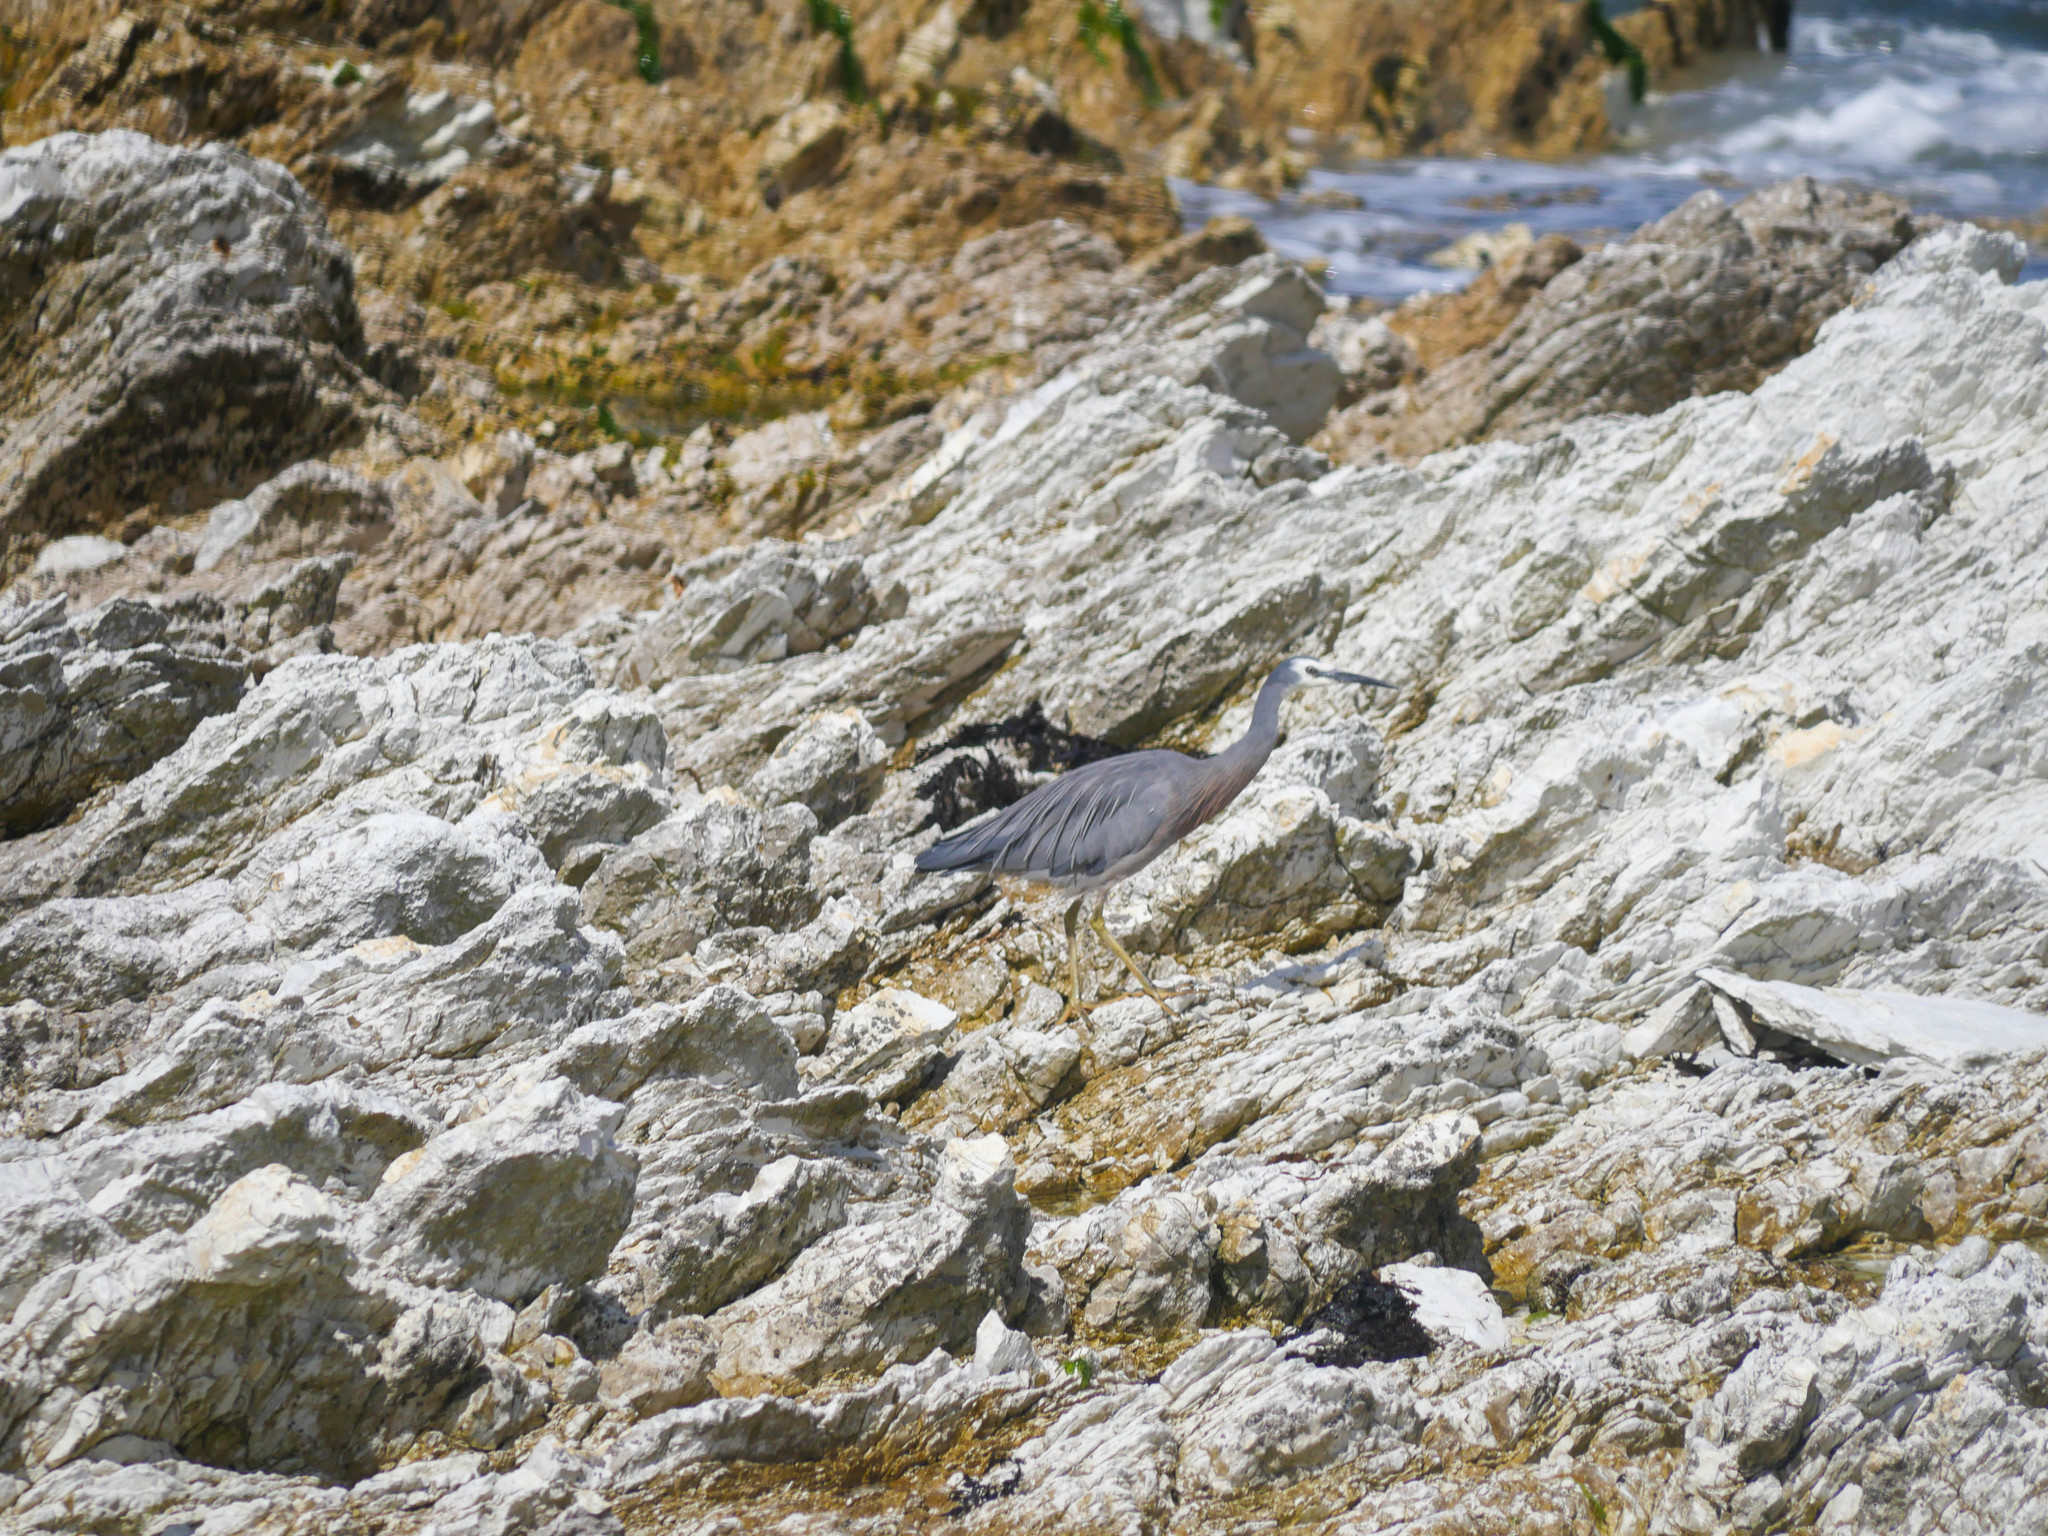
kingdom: Animalia
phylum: Chordata
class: Aves
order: Pelecaniformes
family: Ardeidae
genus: Egretta
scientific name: Egretta novaehollandiae
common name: White-faced heron
